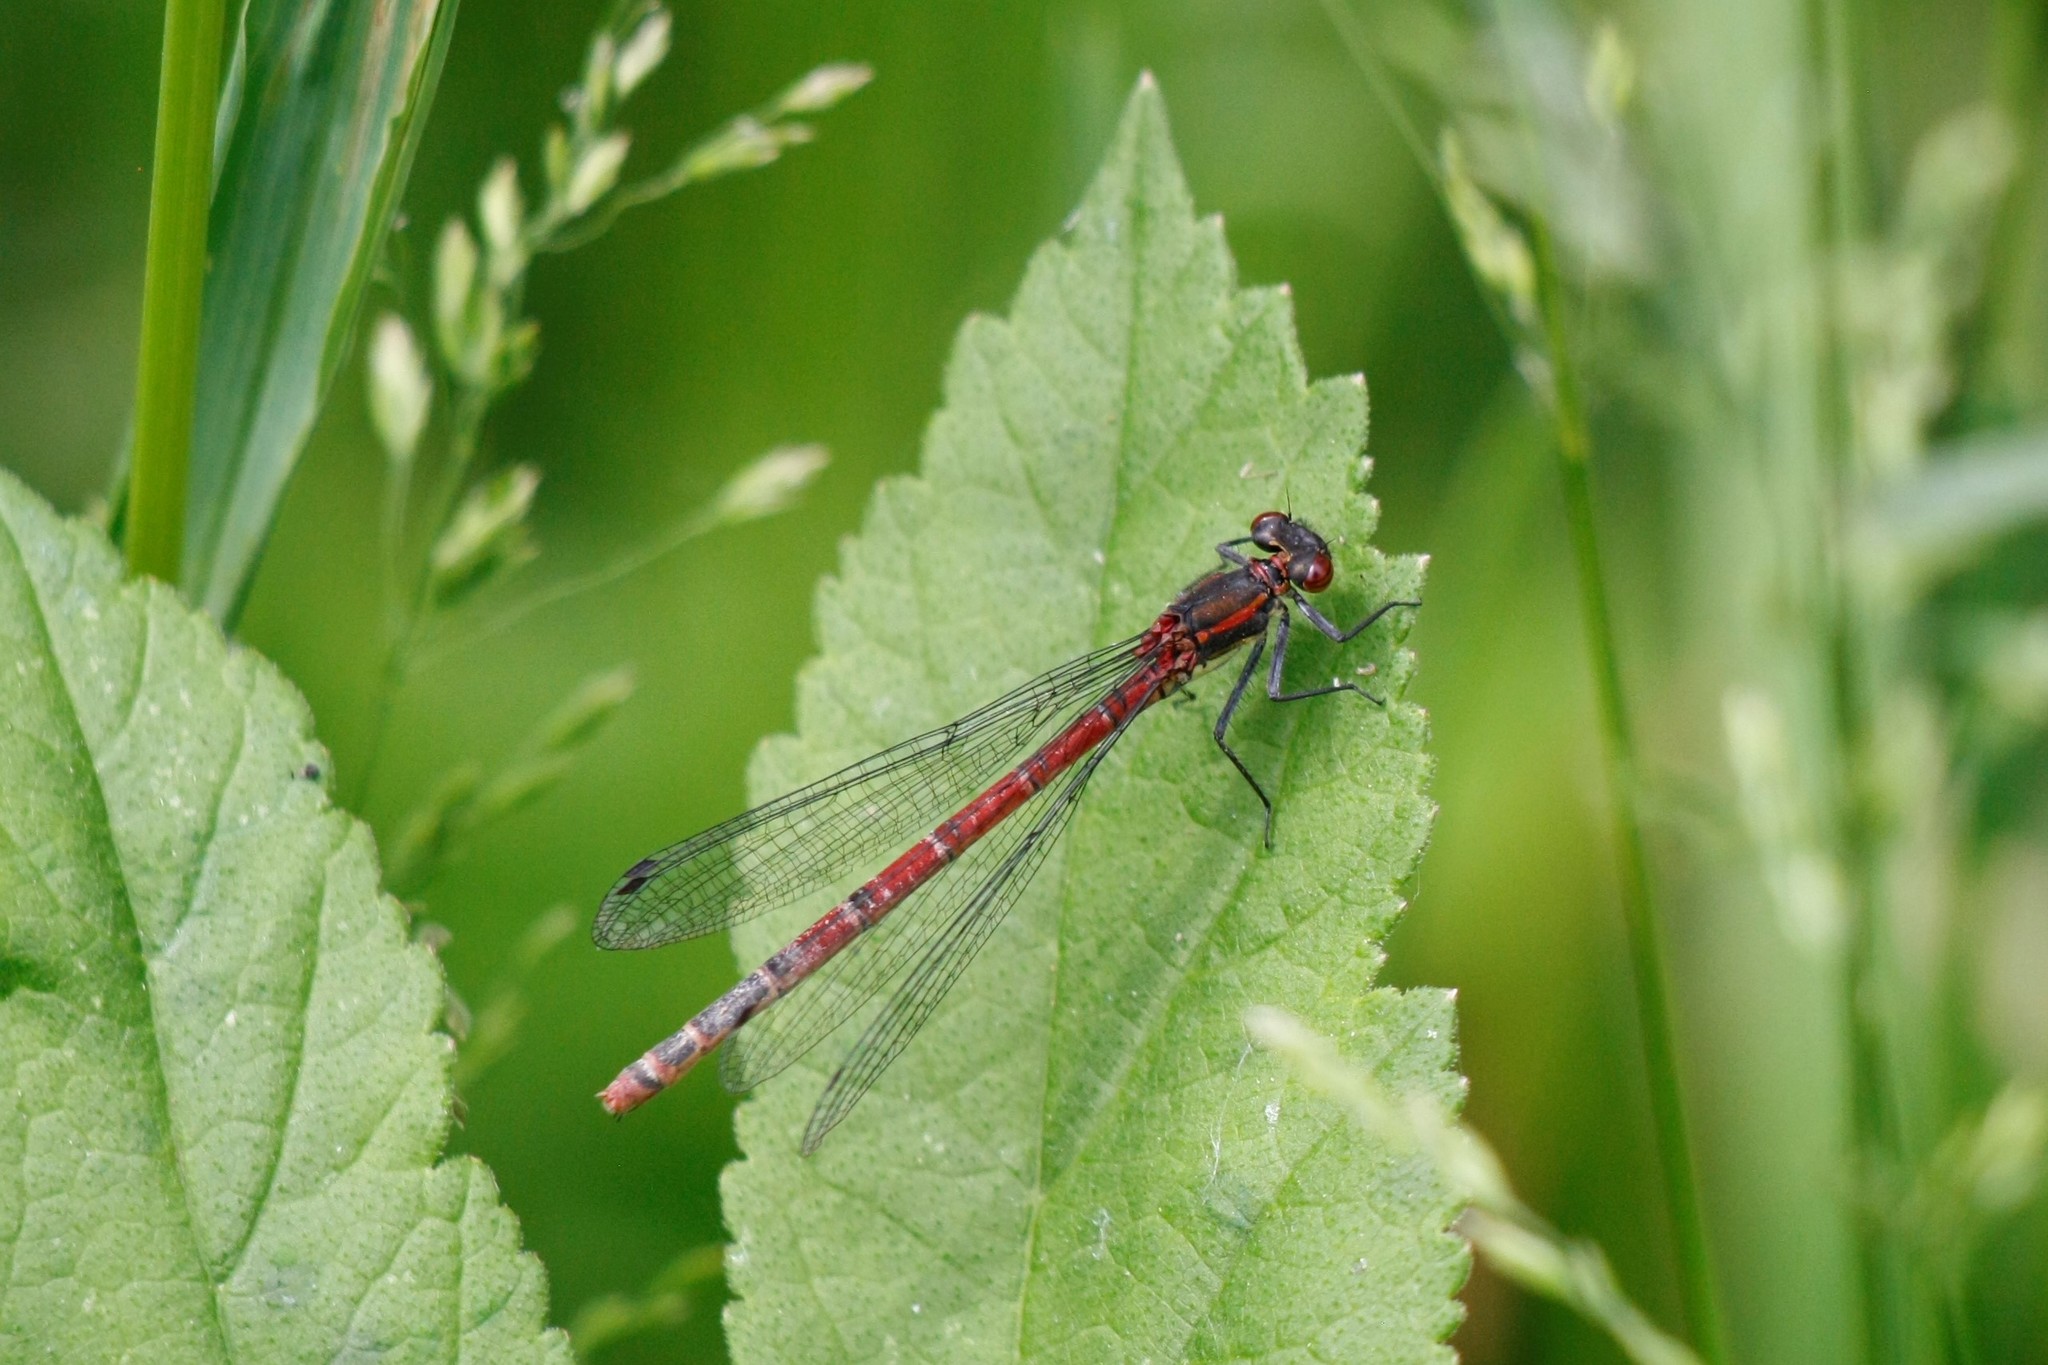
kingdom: Animalia
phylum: Arthropoda
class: Insecta
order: Odonata
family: Coenagrionidae
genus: Pyrrhosoma
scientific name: Pyrrhosoma nymphula
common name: Large red damsel
